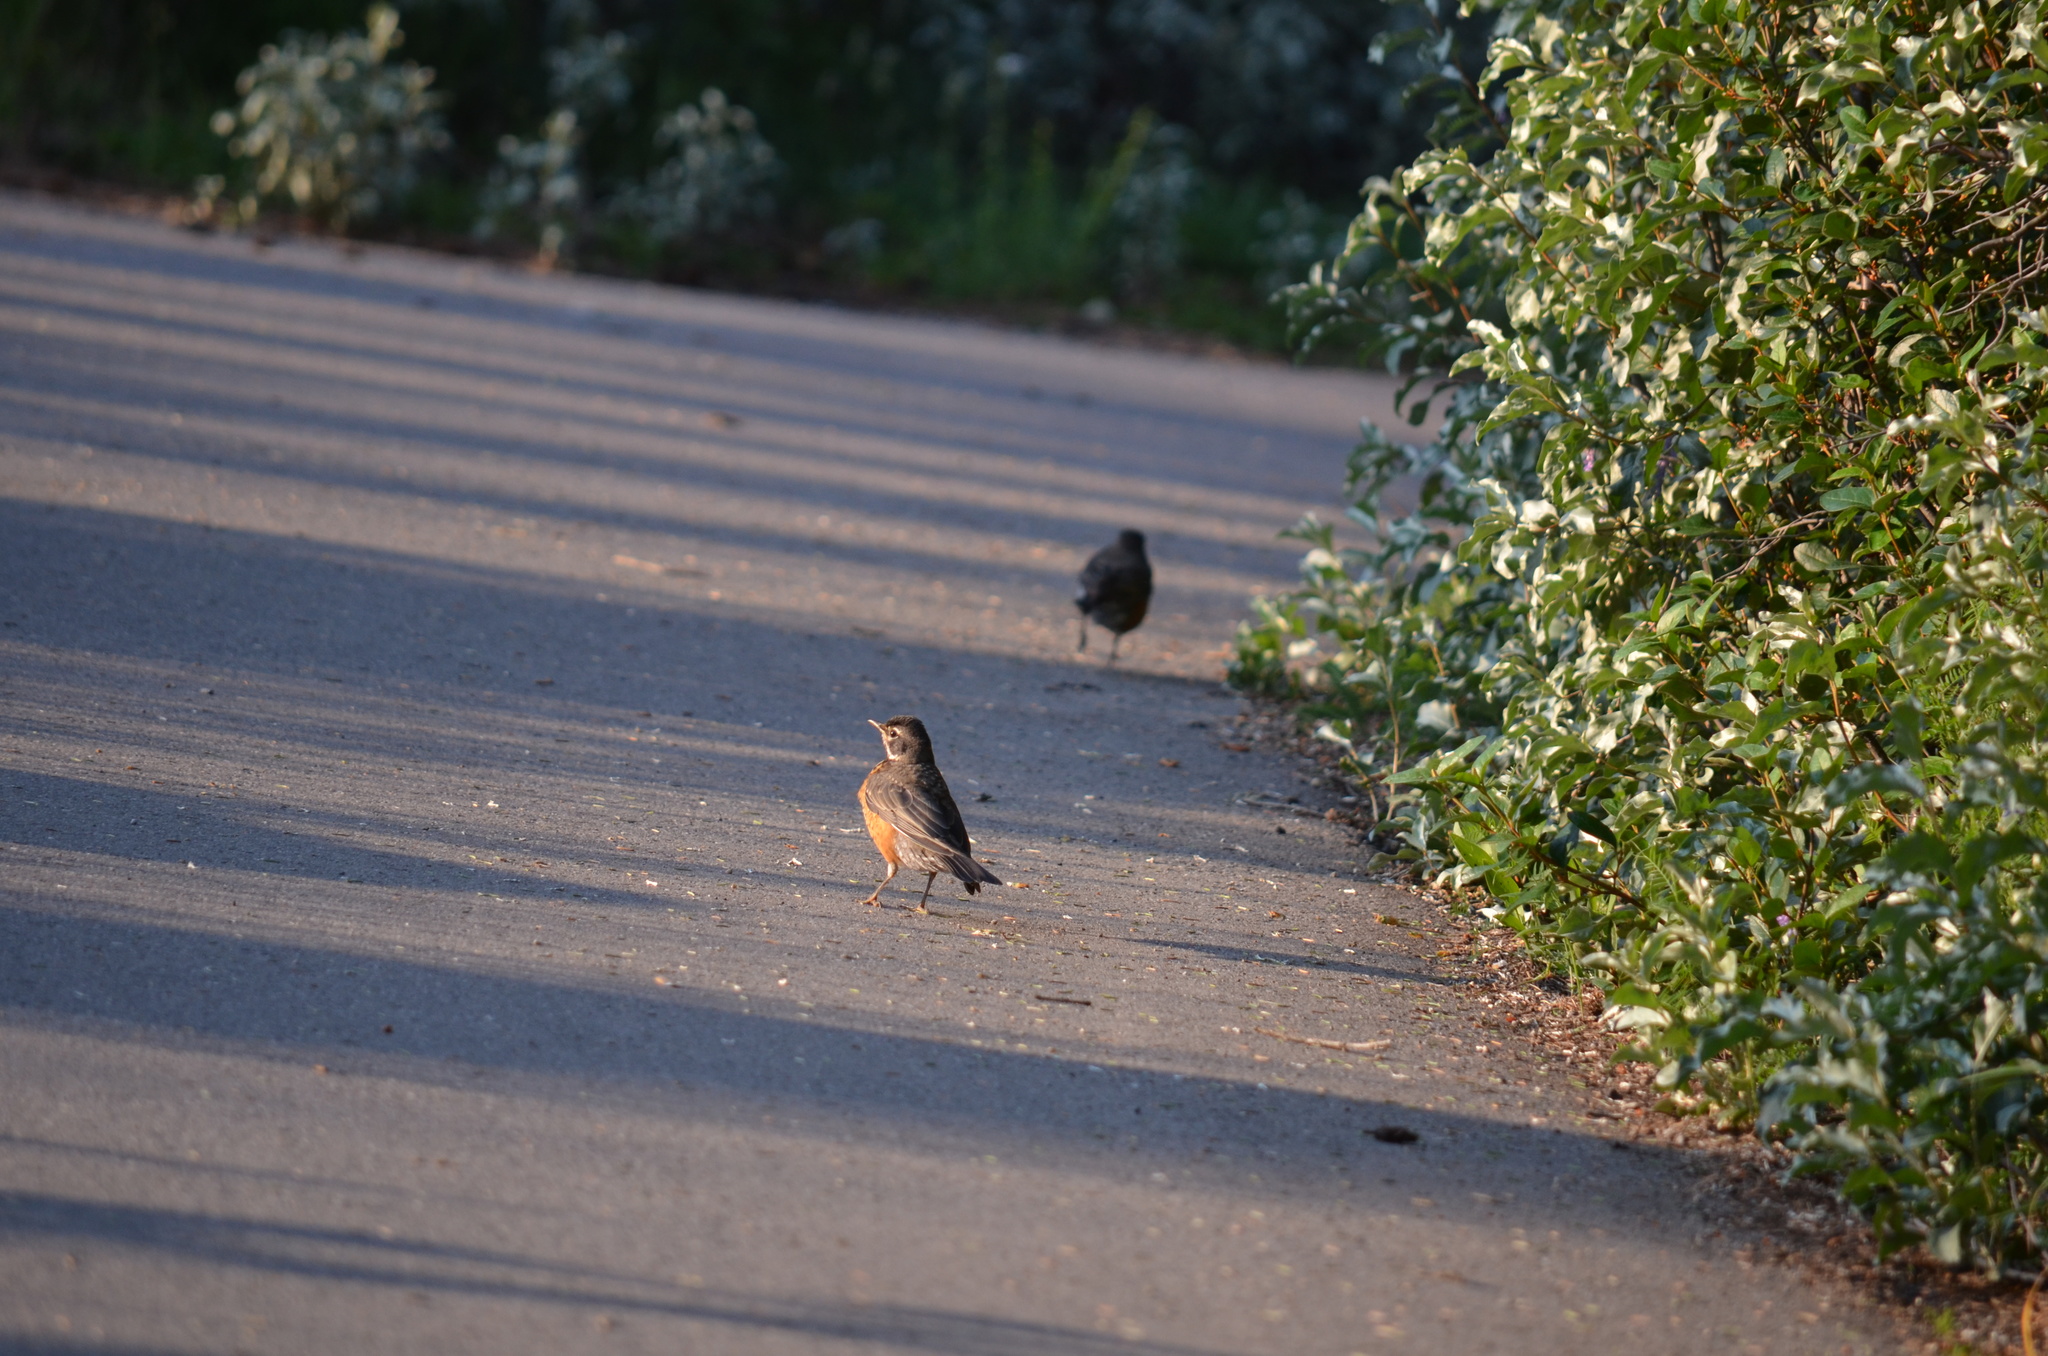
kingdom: Animalia
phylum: Chordata
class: Aves
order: Passeriformes
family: Turdidae
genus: Turdus
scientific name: Turdus migratorius
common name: American robin
